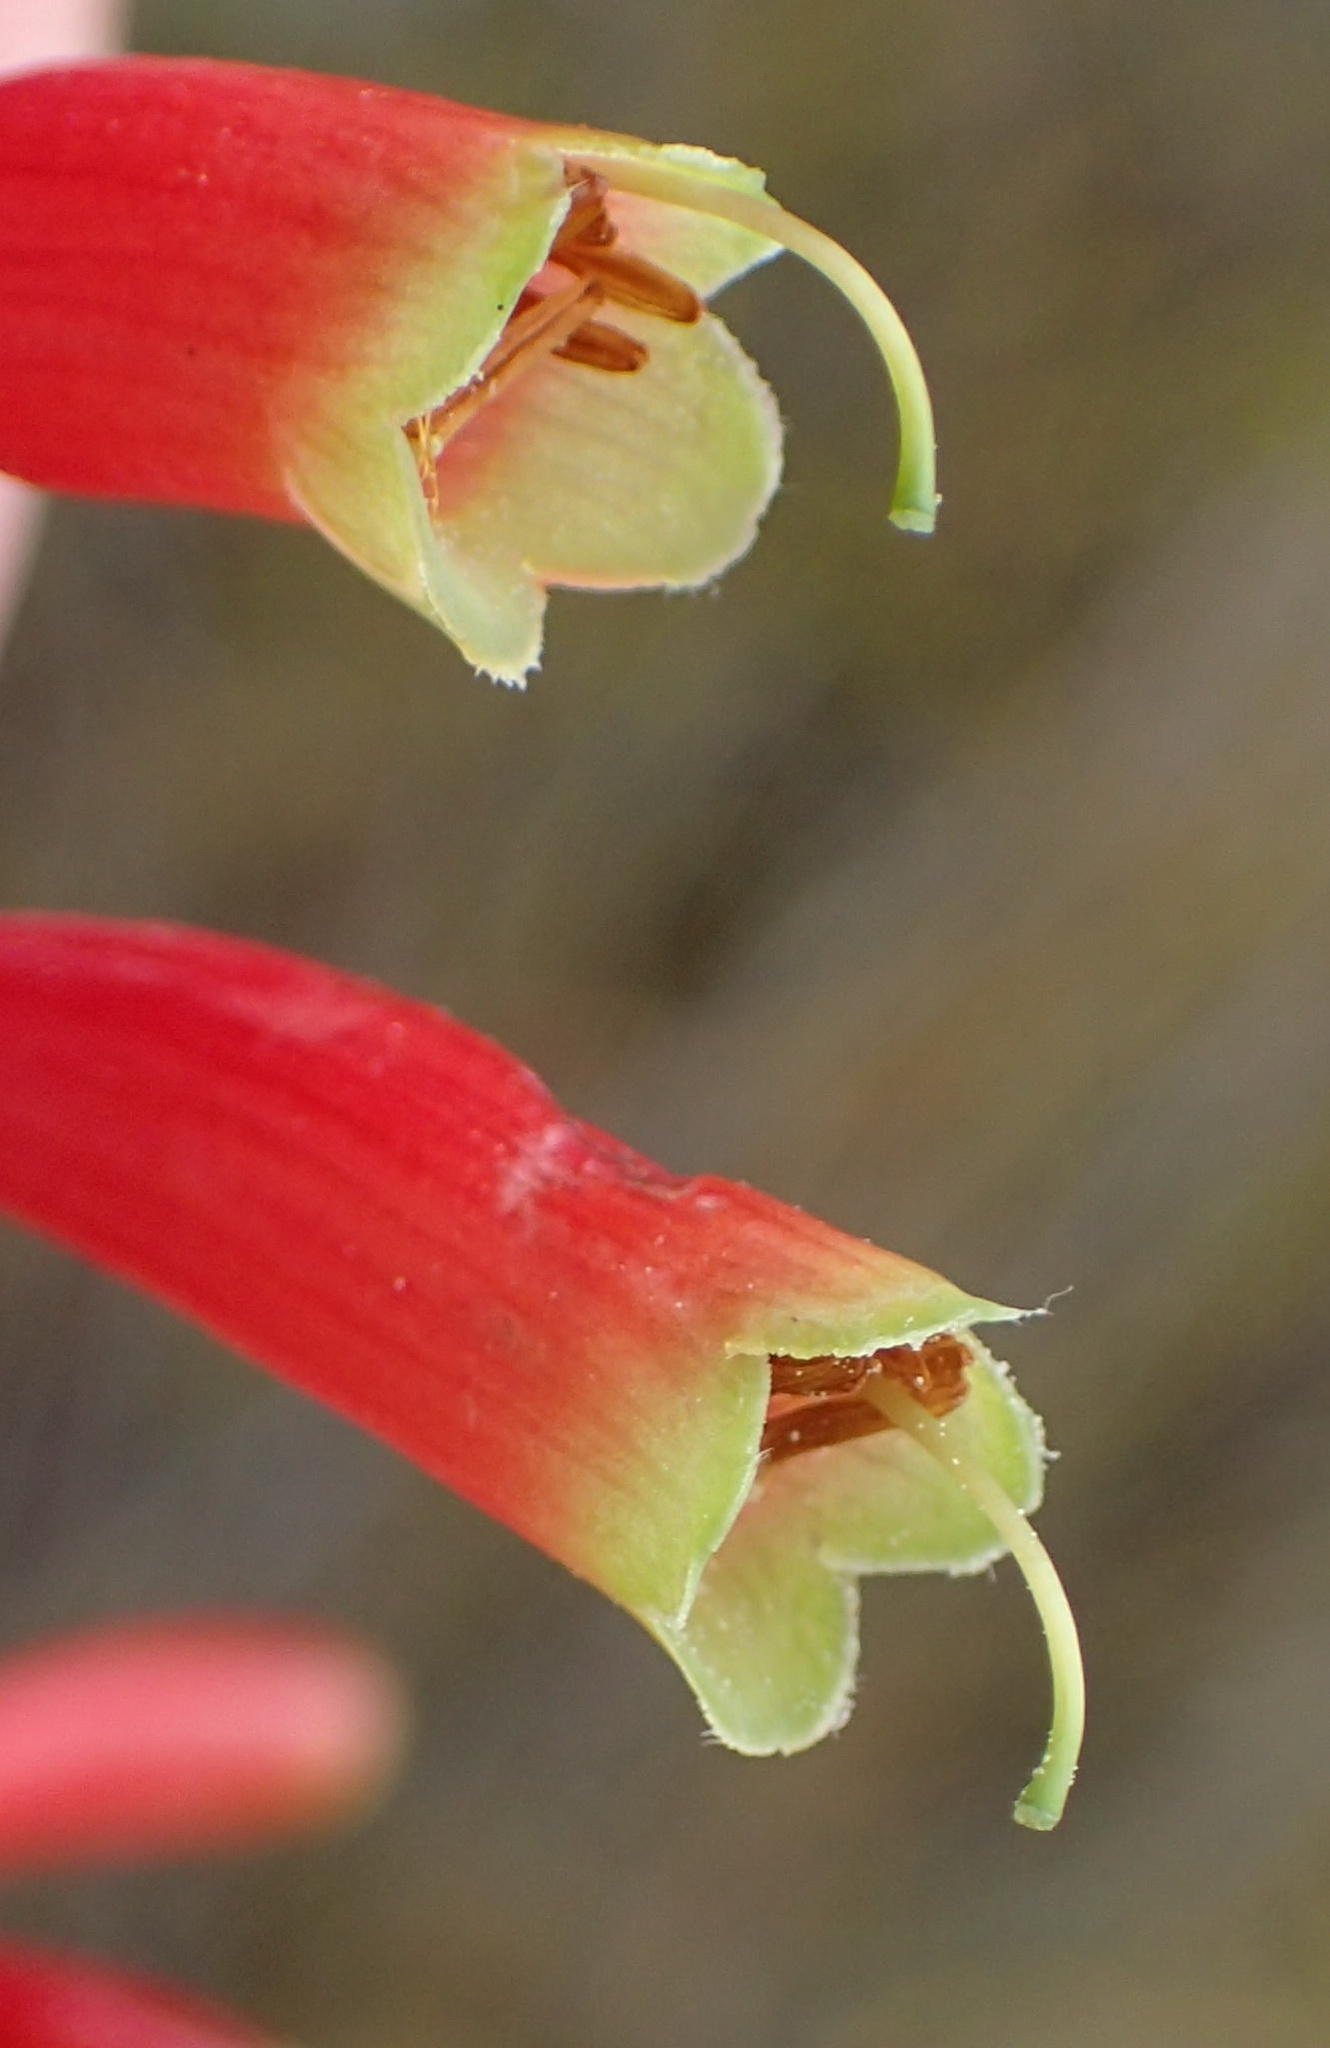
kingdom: Plantae
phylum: Tracheophyta
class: Magnoliopsida
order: Ericales
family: Ericaceae
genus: Erica
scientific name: Erica discolor
